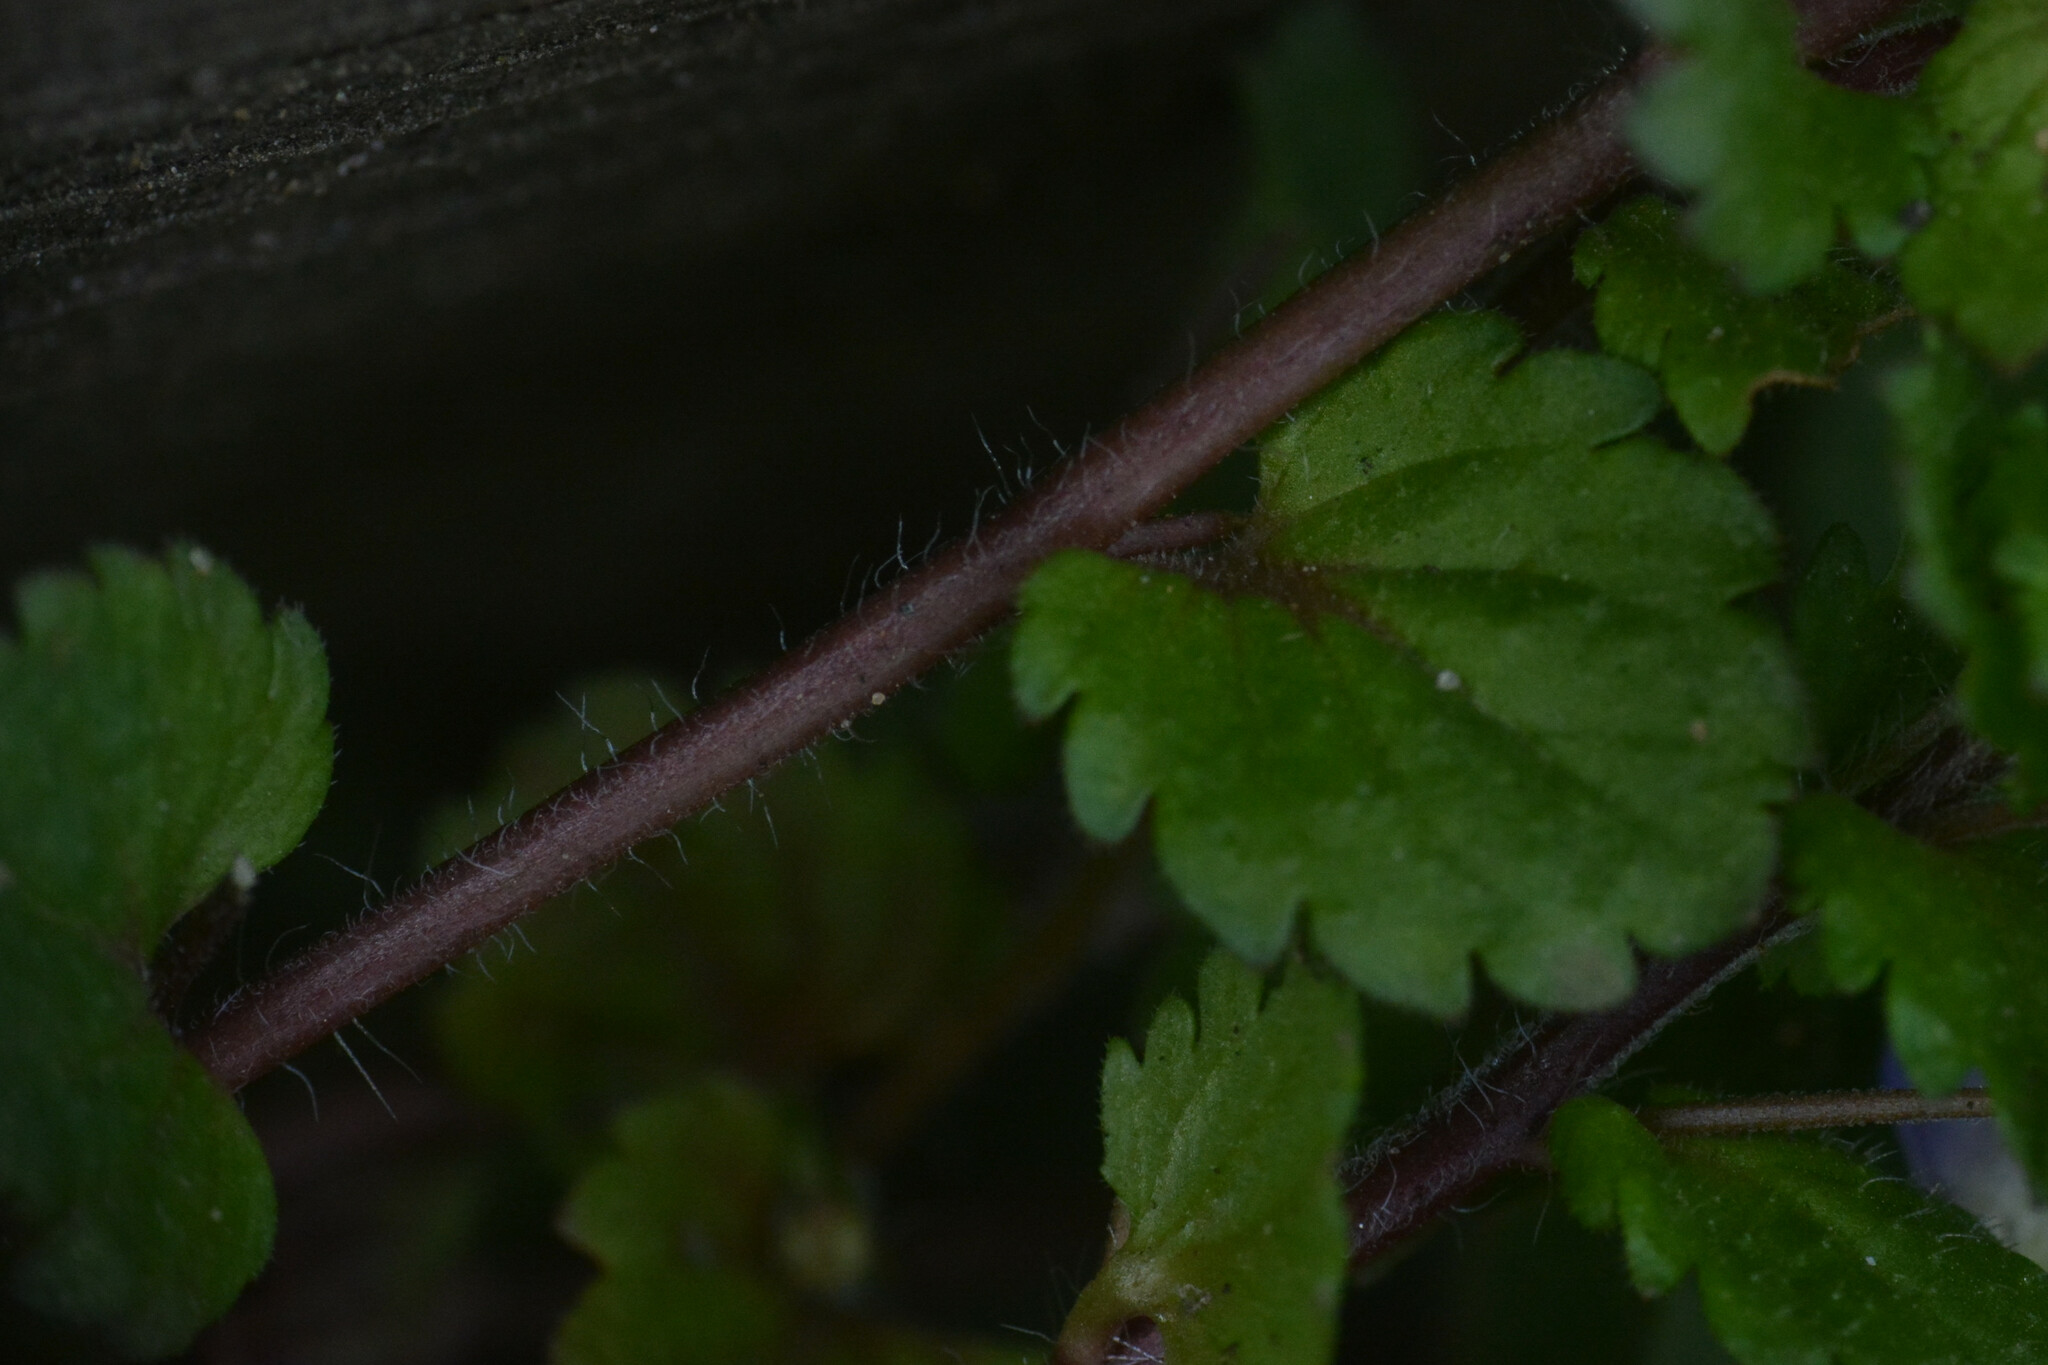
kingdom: Plantae
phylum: Tracheophyta
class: Magnoliopsida
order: Lamiales
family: Plantaginaceae
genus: Veronica
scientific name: Veronica persica
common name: Common field-speedwell
